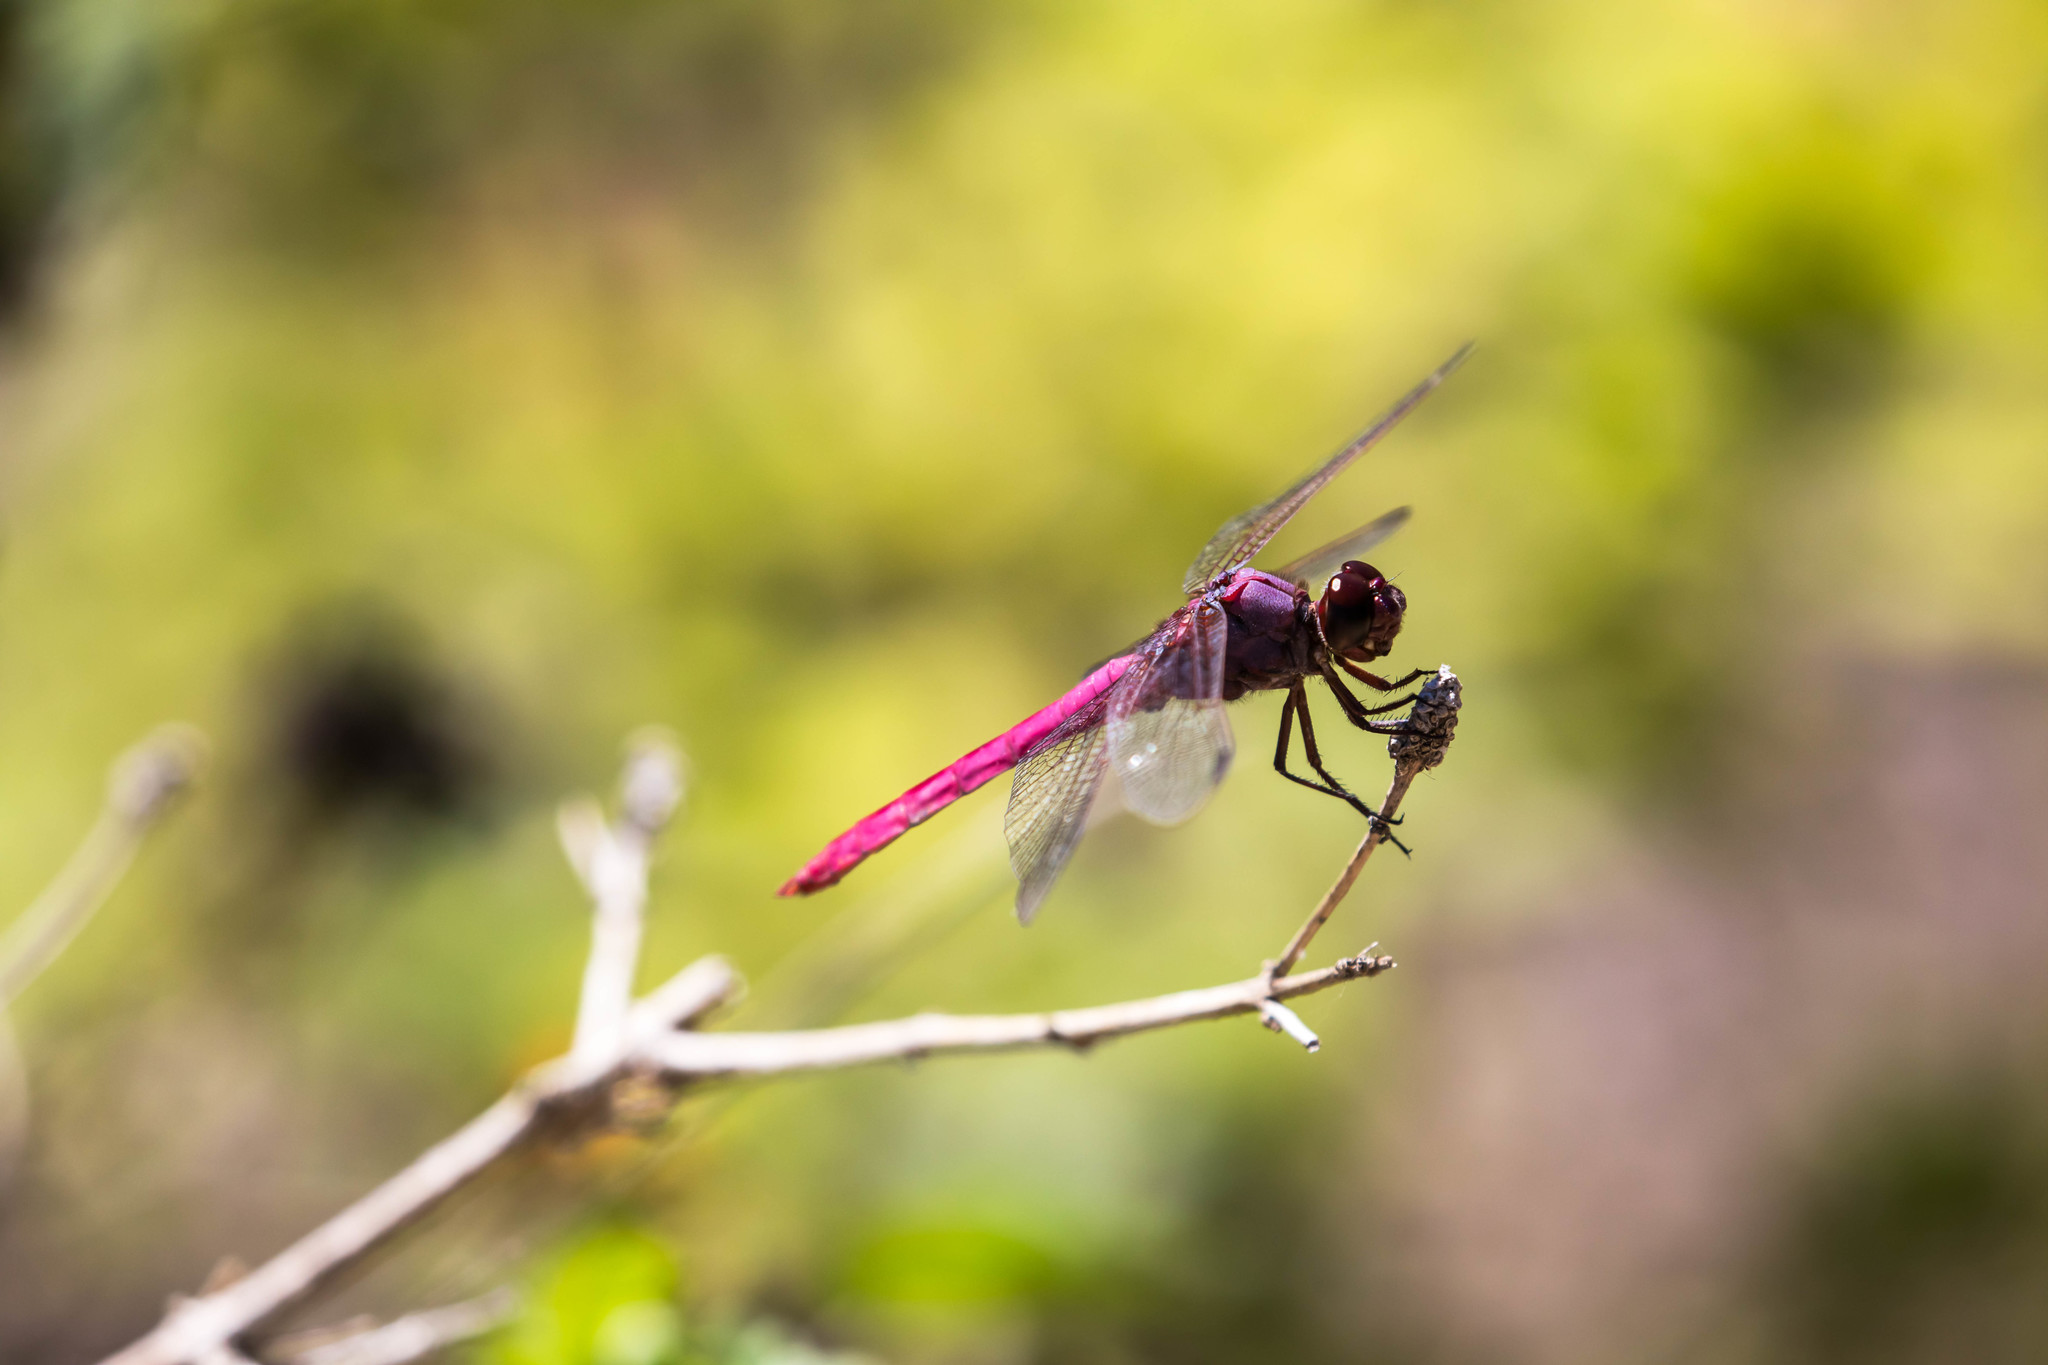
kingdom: Animalia
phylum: Arthropoda
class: Insecta
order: Odonata
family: Libellulidae
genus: Orthemis
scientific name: Orthemis ferruginea
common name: Roseate skimmer
